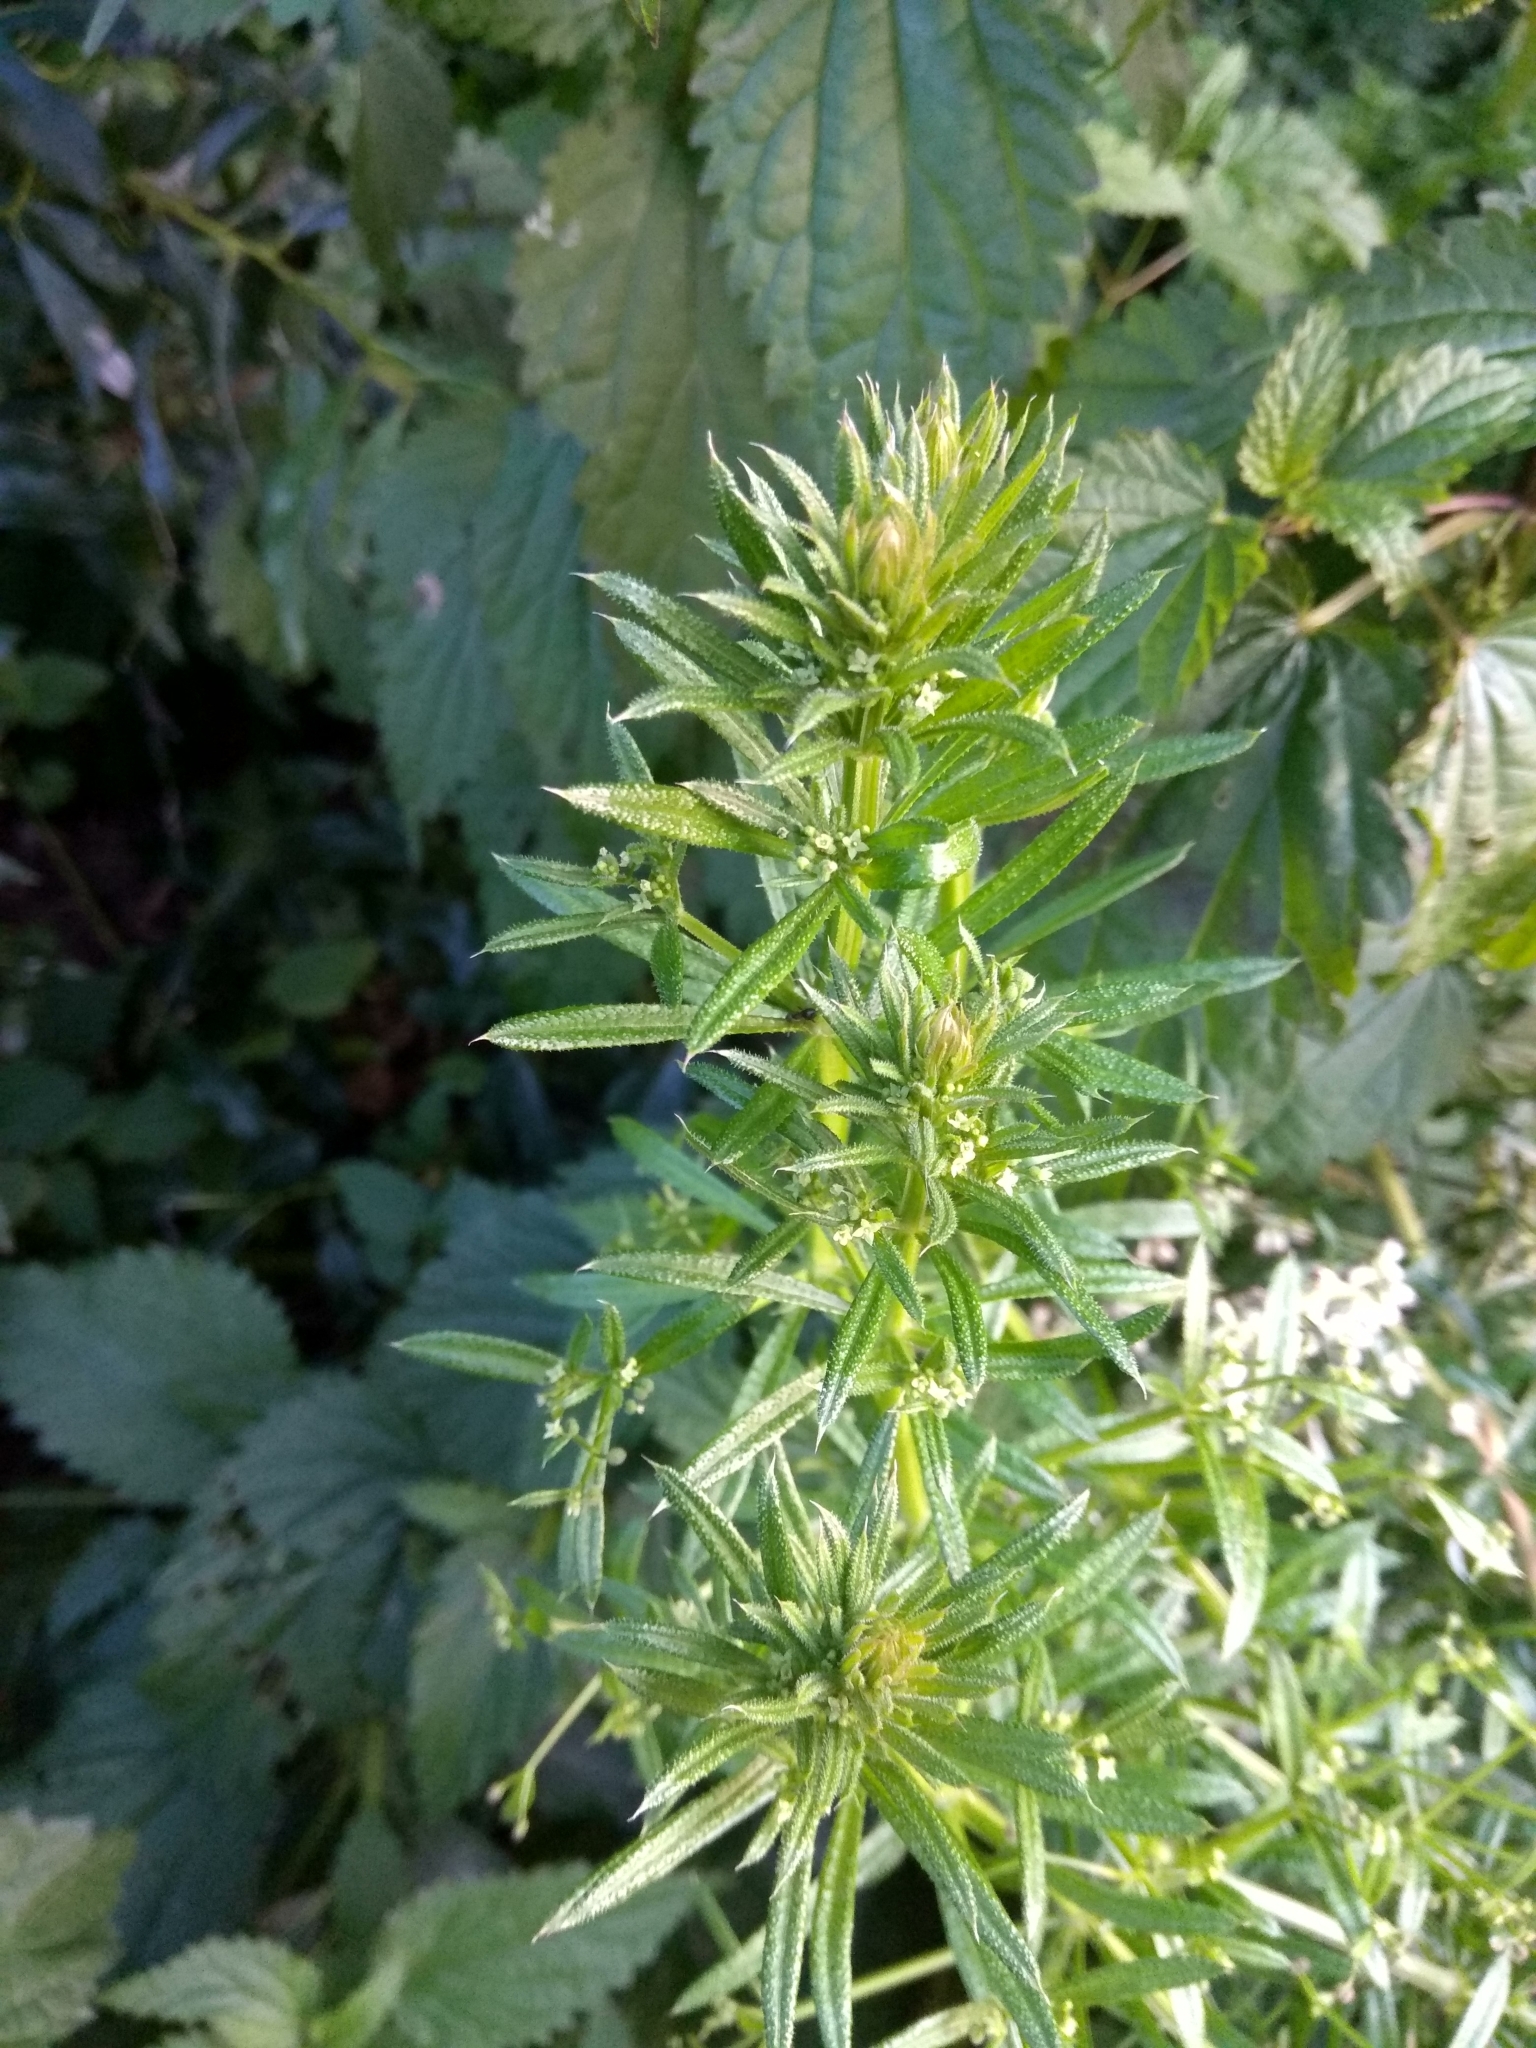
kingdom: Plantae
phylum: Tracheophyta
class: Magnoliopsida
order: Gentianales
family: Rubiaceae
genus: Galium
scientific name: Galium spurium
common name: False cleavers
